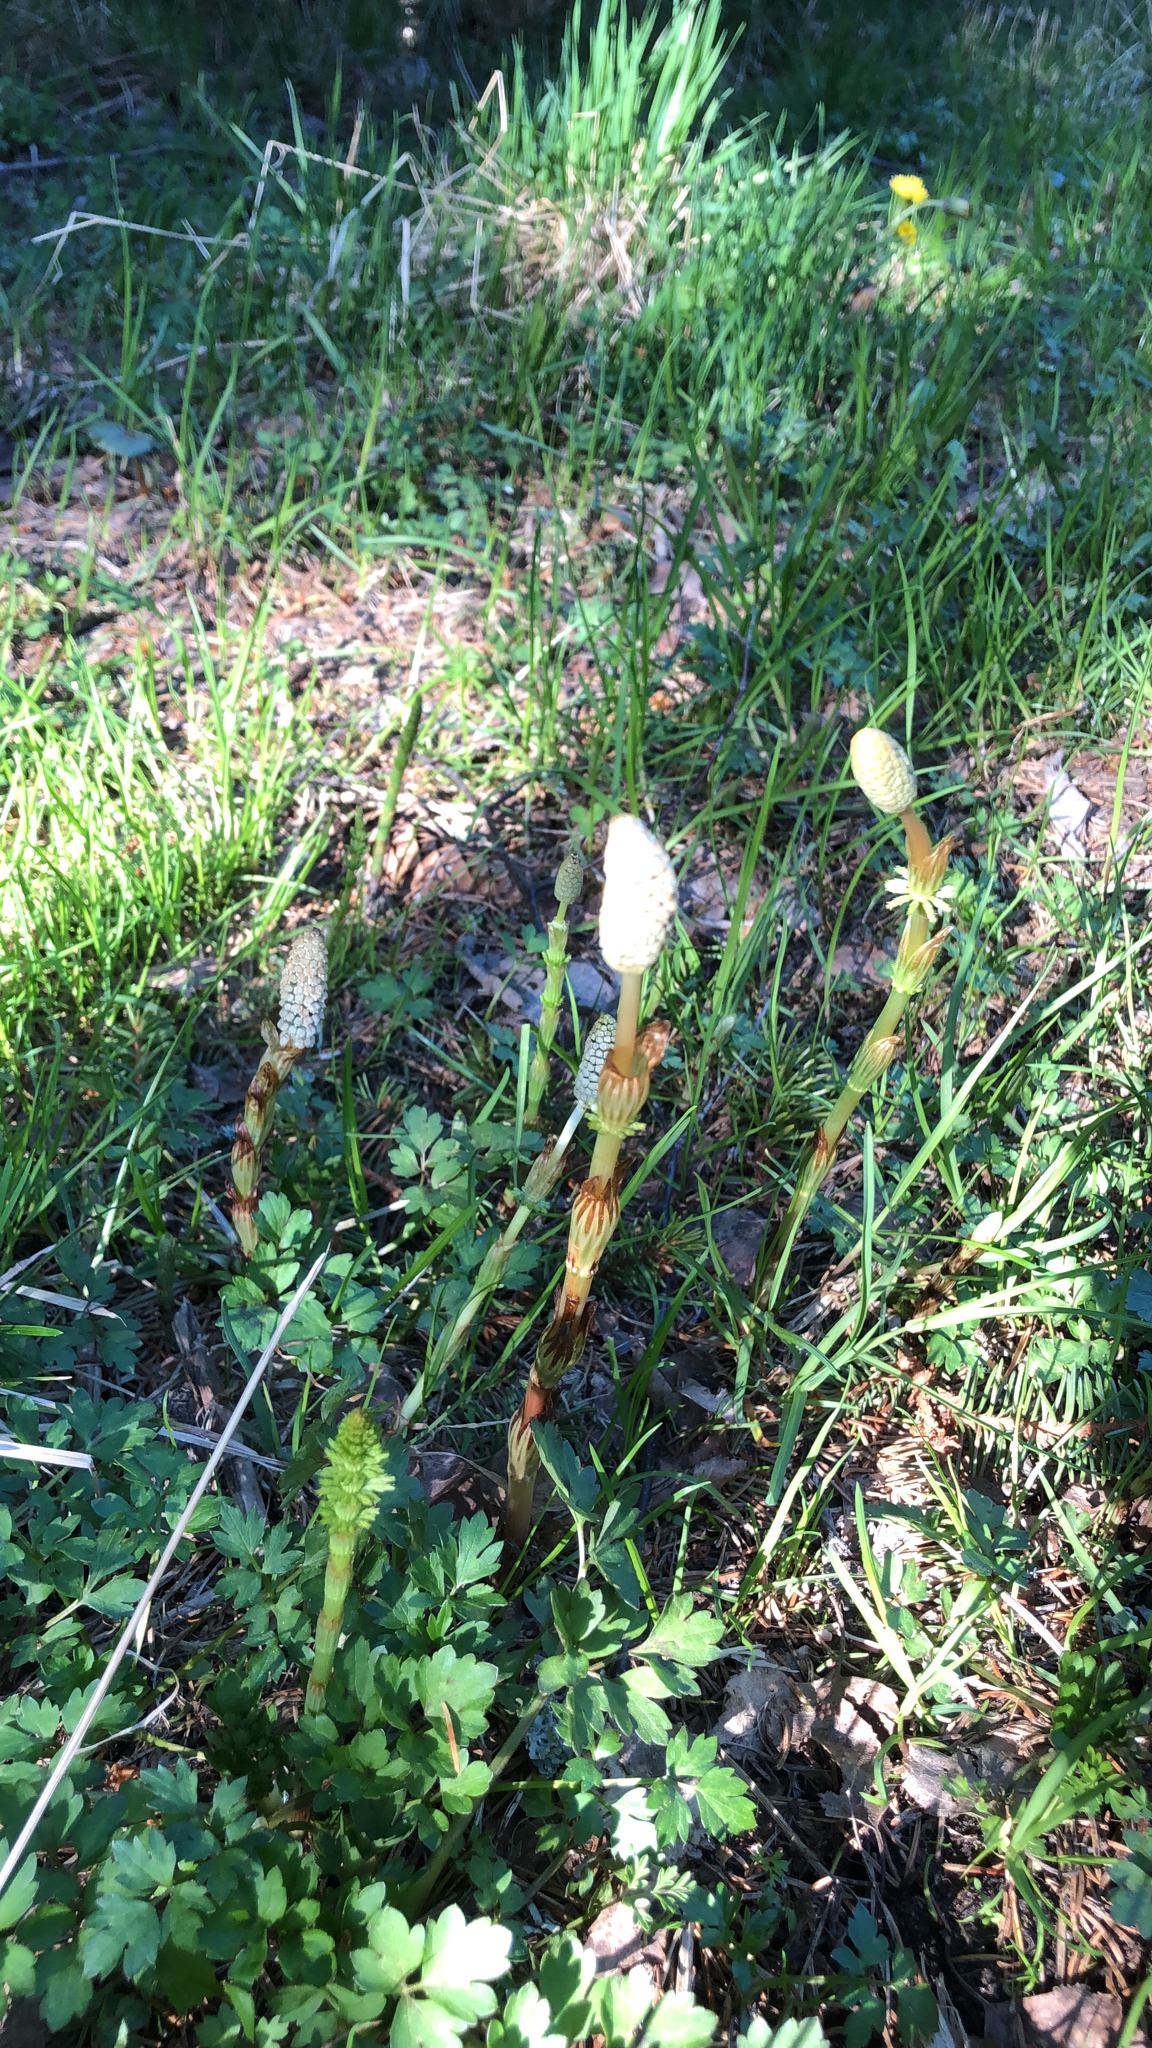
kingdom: Plantae
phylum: Tracheophyta
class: Polypodiopsida
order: Equisetales
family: Equisetaceae
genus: Equisetum
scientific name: Equisetum sylvaticum
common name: Wood horsetail
